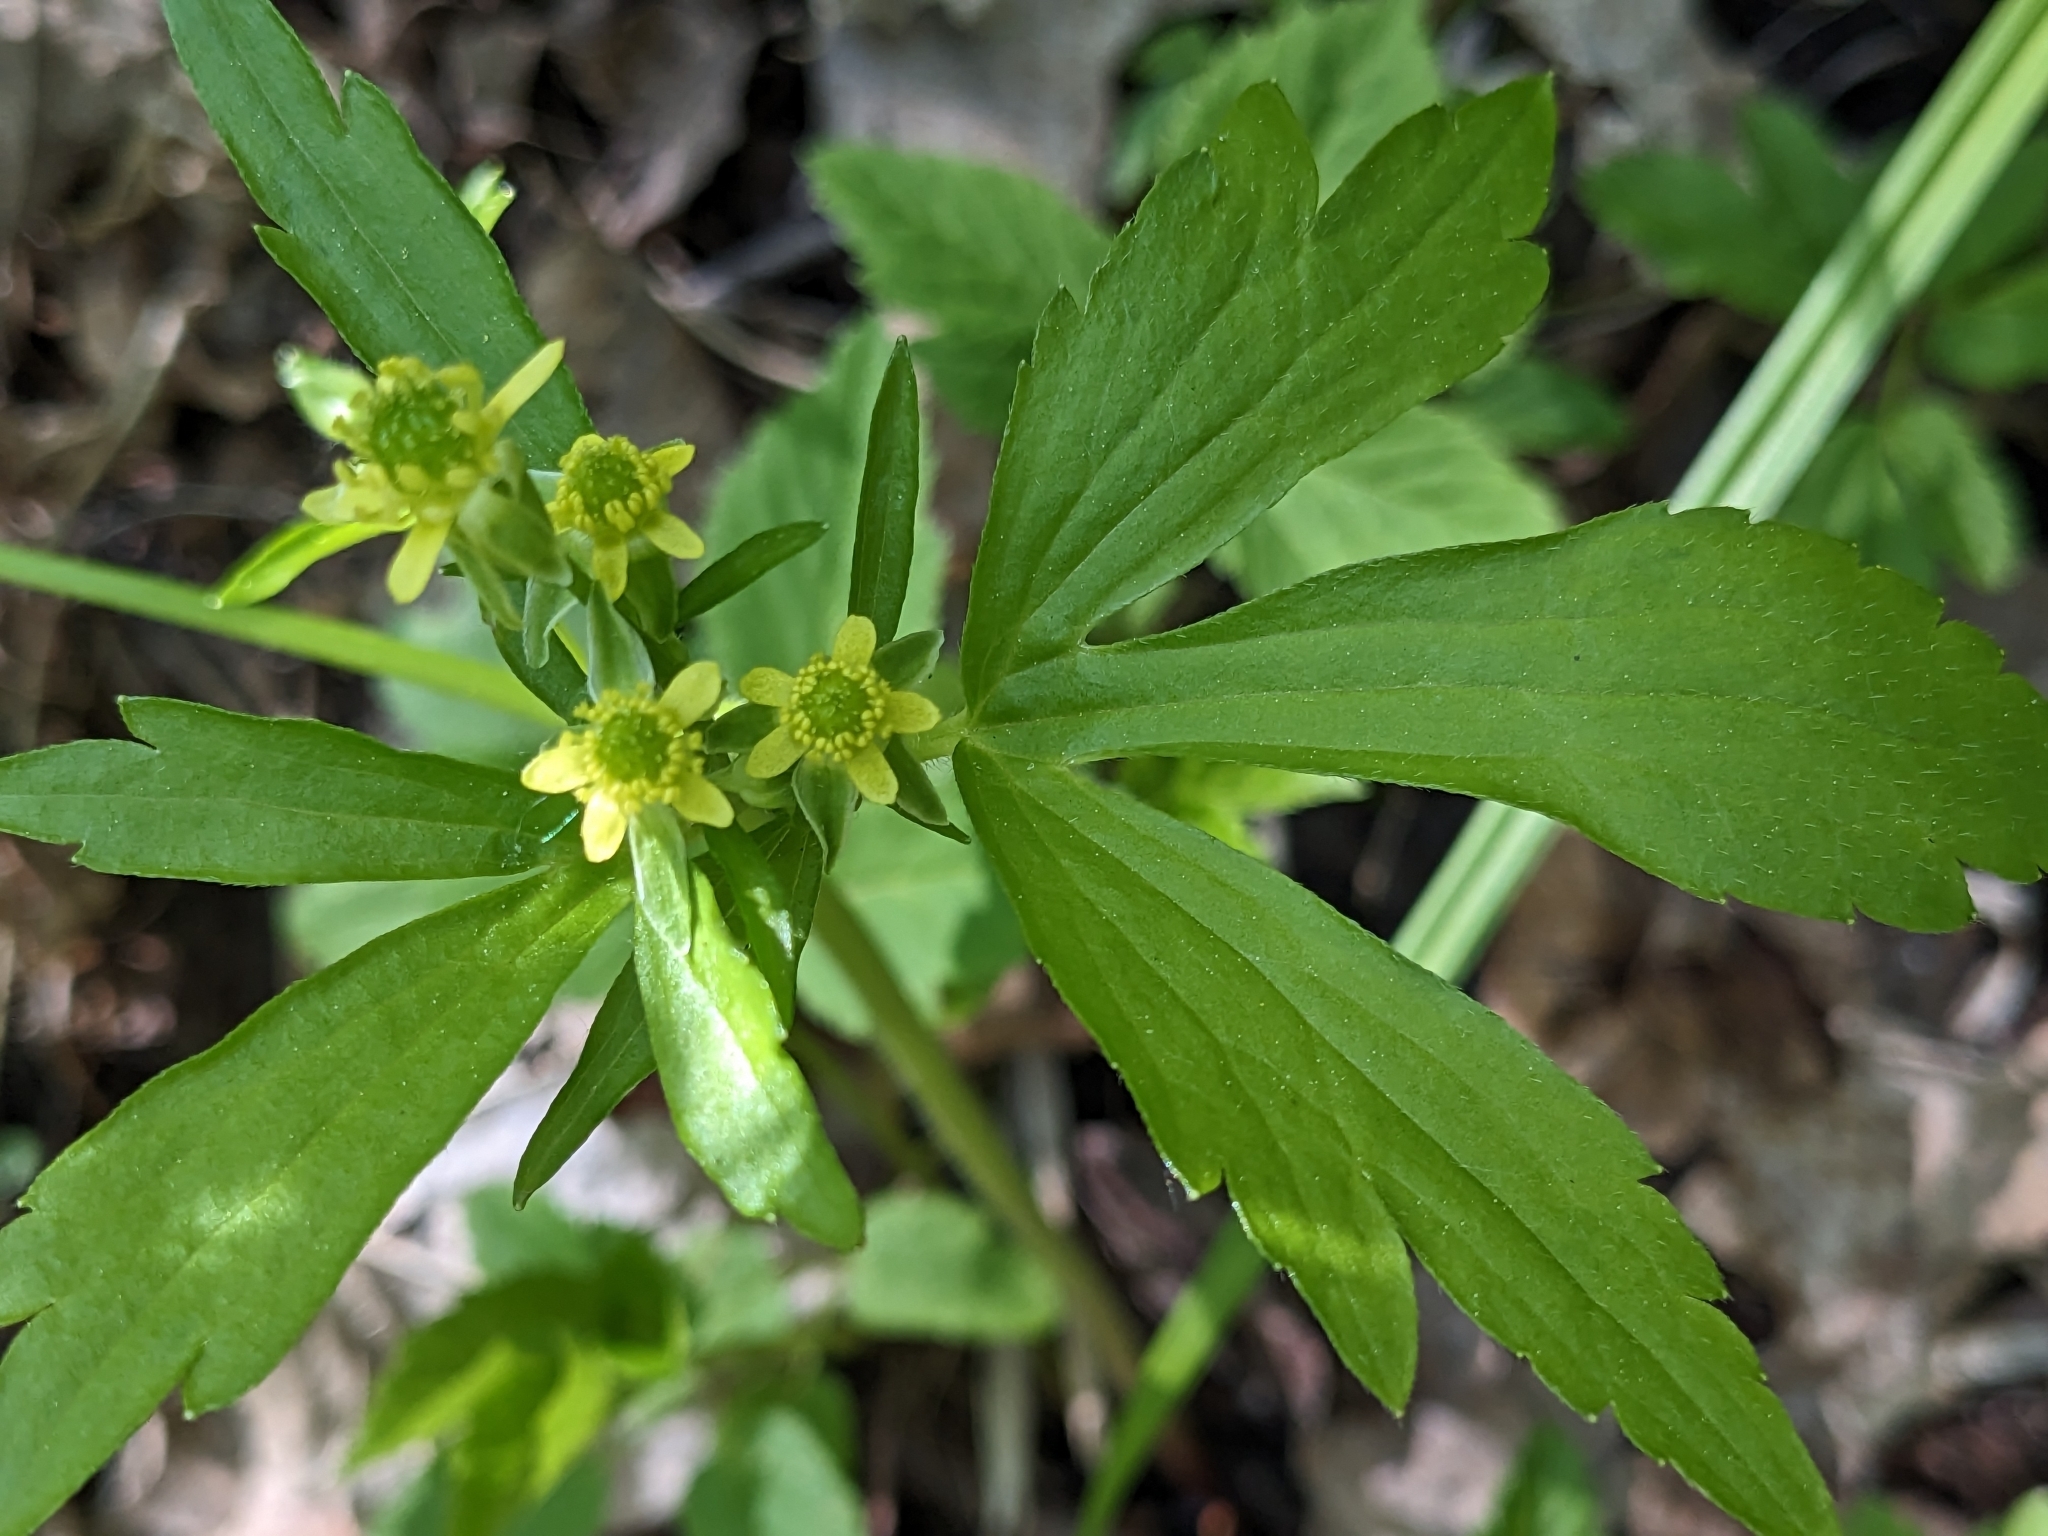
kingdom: Plantae
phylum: Tracheophyta
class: Magnoliopsida
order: Ranunculales
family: Ranunculaceae
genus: Ranunculus
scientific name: Ranunculus recurvatus
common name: Blisterwort
